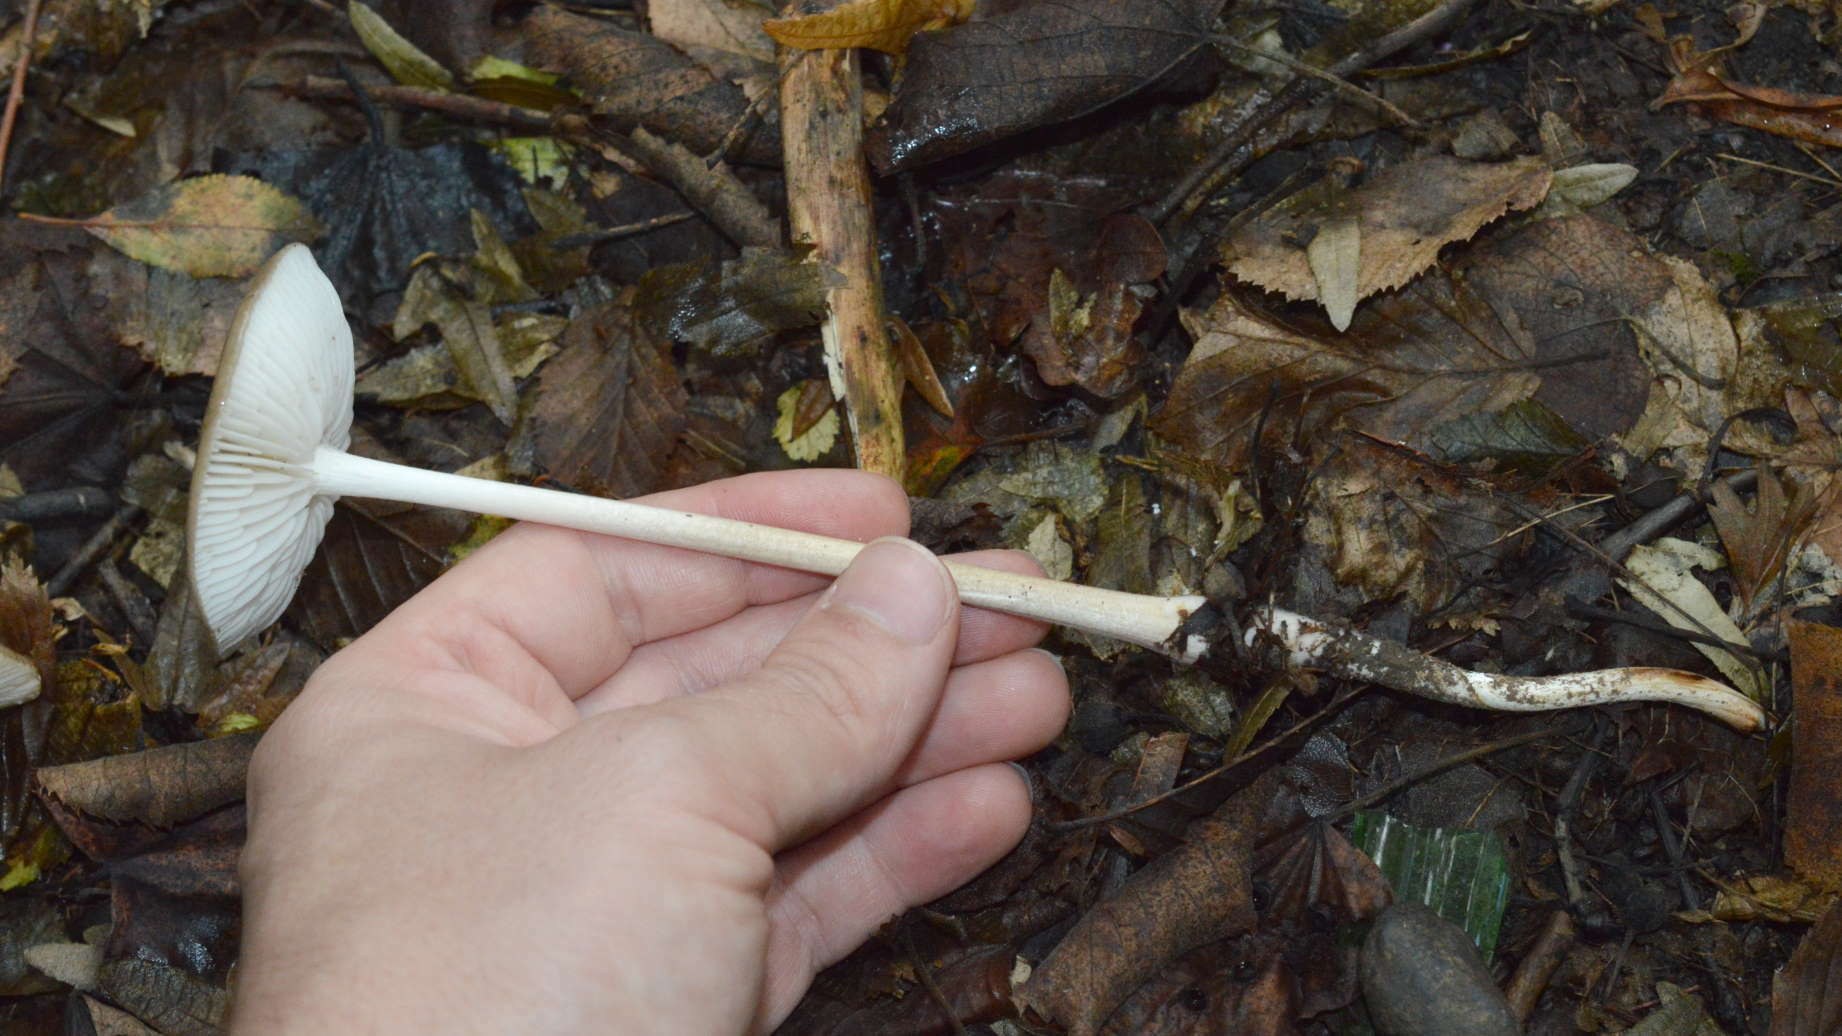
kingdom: Fungi
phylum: Basidiomycota
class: Agaricomycetes
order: Agaricales
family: Physalacriaceae
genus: Hymenopellis
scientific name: Hymenopellis radicata
